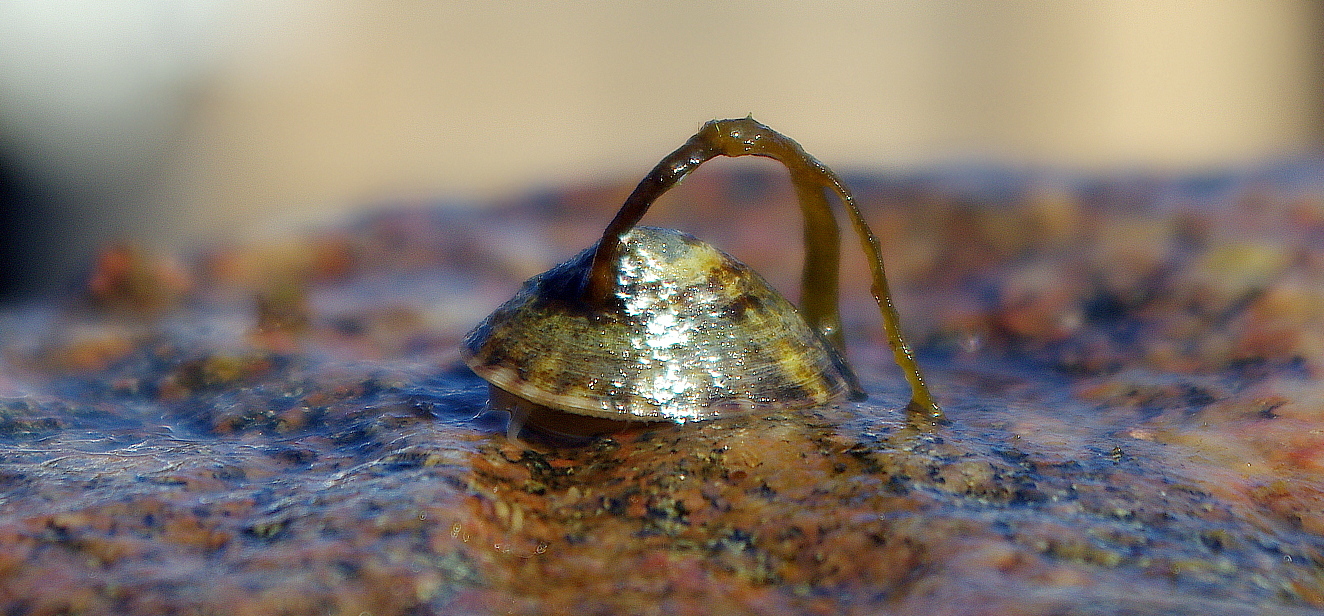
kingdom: Animalia
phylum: Mollusca
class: Gastropoda
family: Lottiidae
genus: Testudinalia
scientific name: Testudinalia testudinalis
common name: Common tortoiseshell limpet
